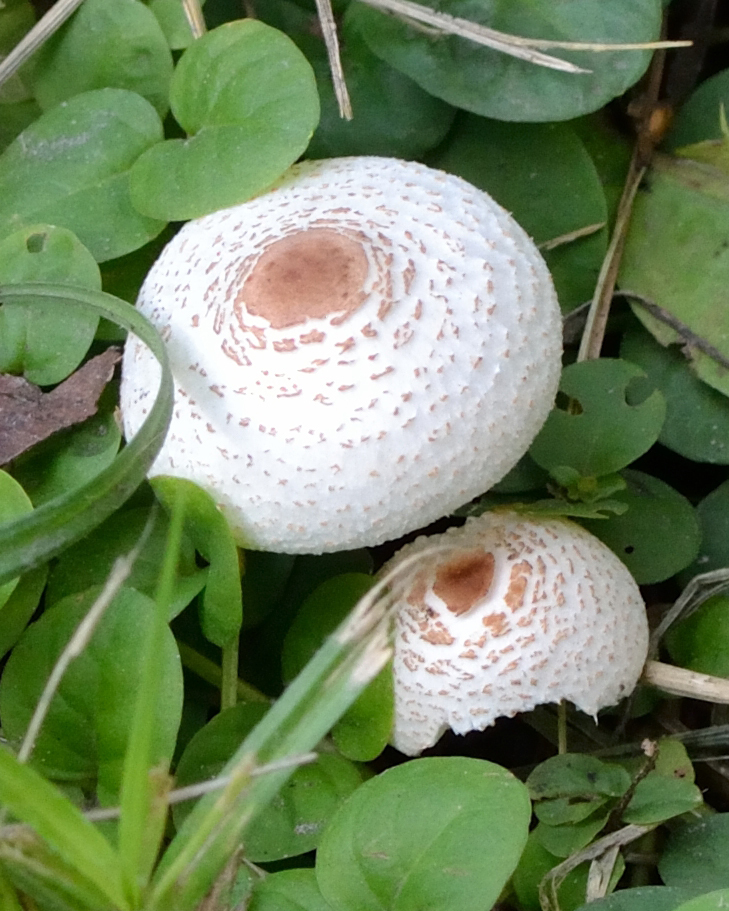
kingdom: Fungi
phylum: Basidiomycota
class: Agaricomycetes
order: Agaricales
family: Agaricaceae
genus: Lepiota
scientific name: Lepiota cristata
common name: Stinking dapperling
